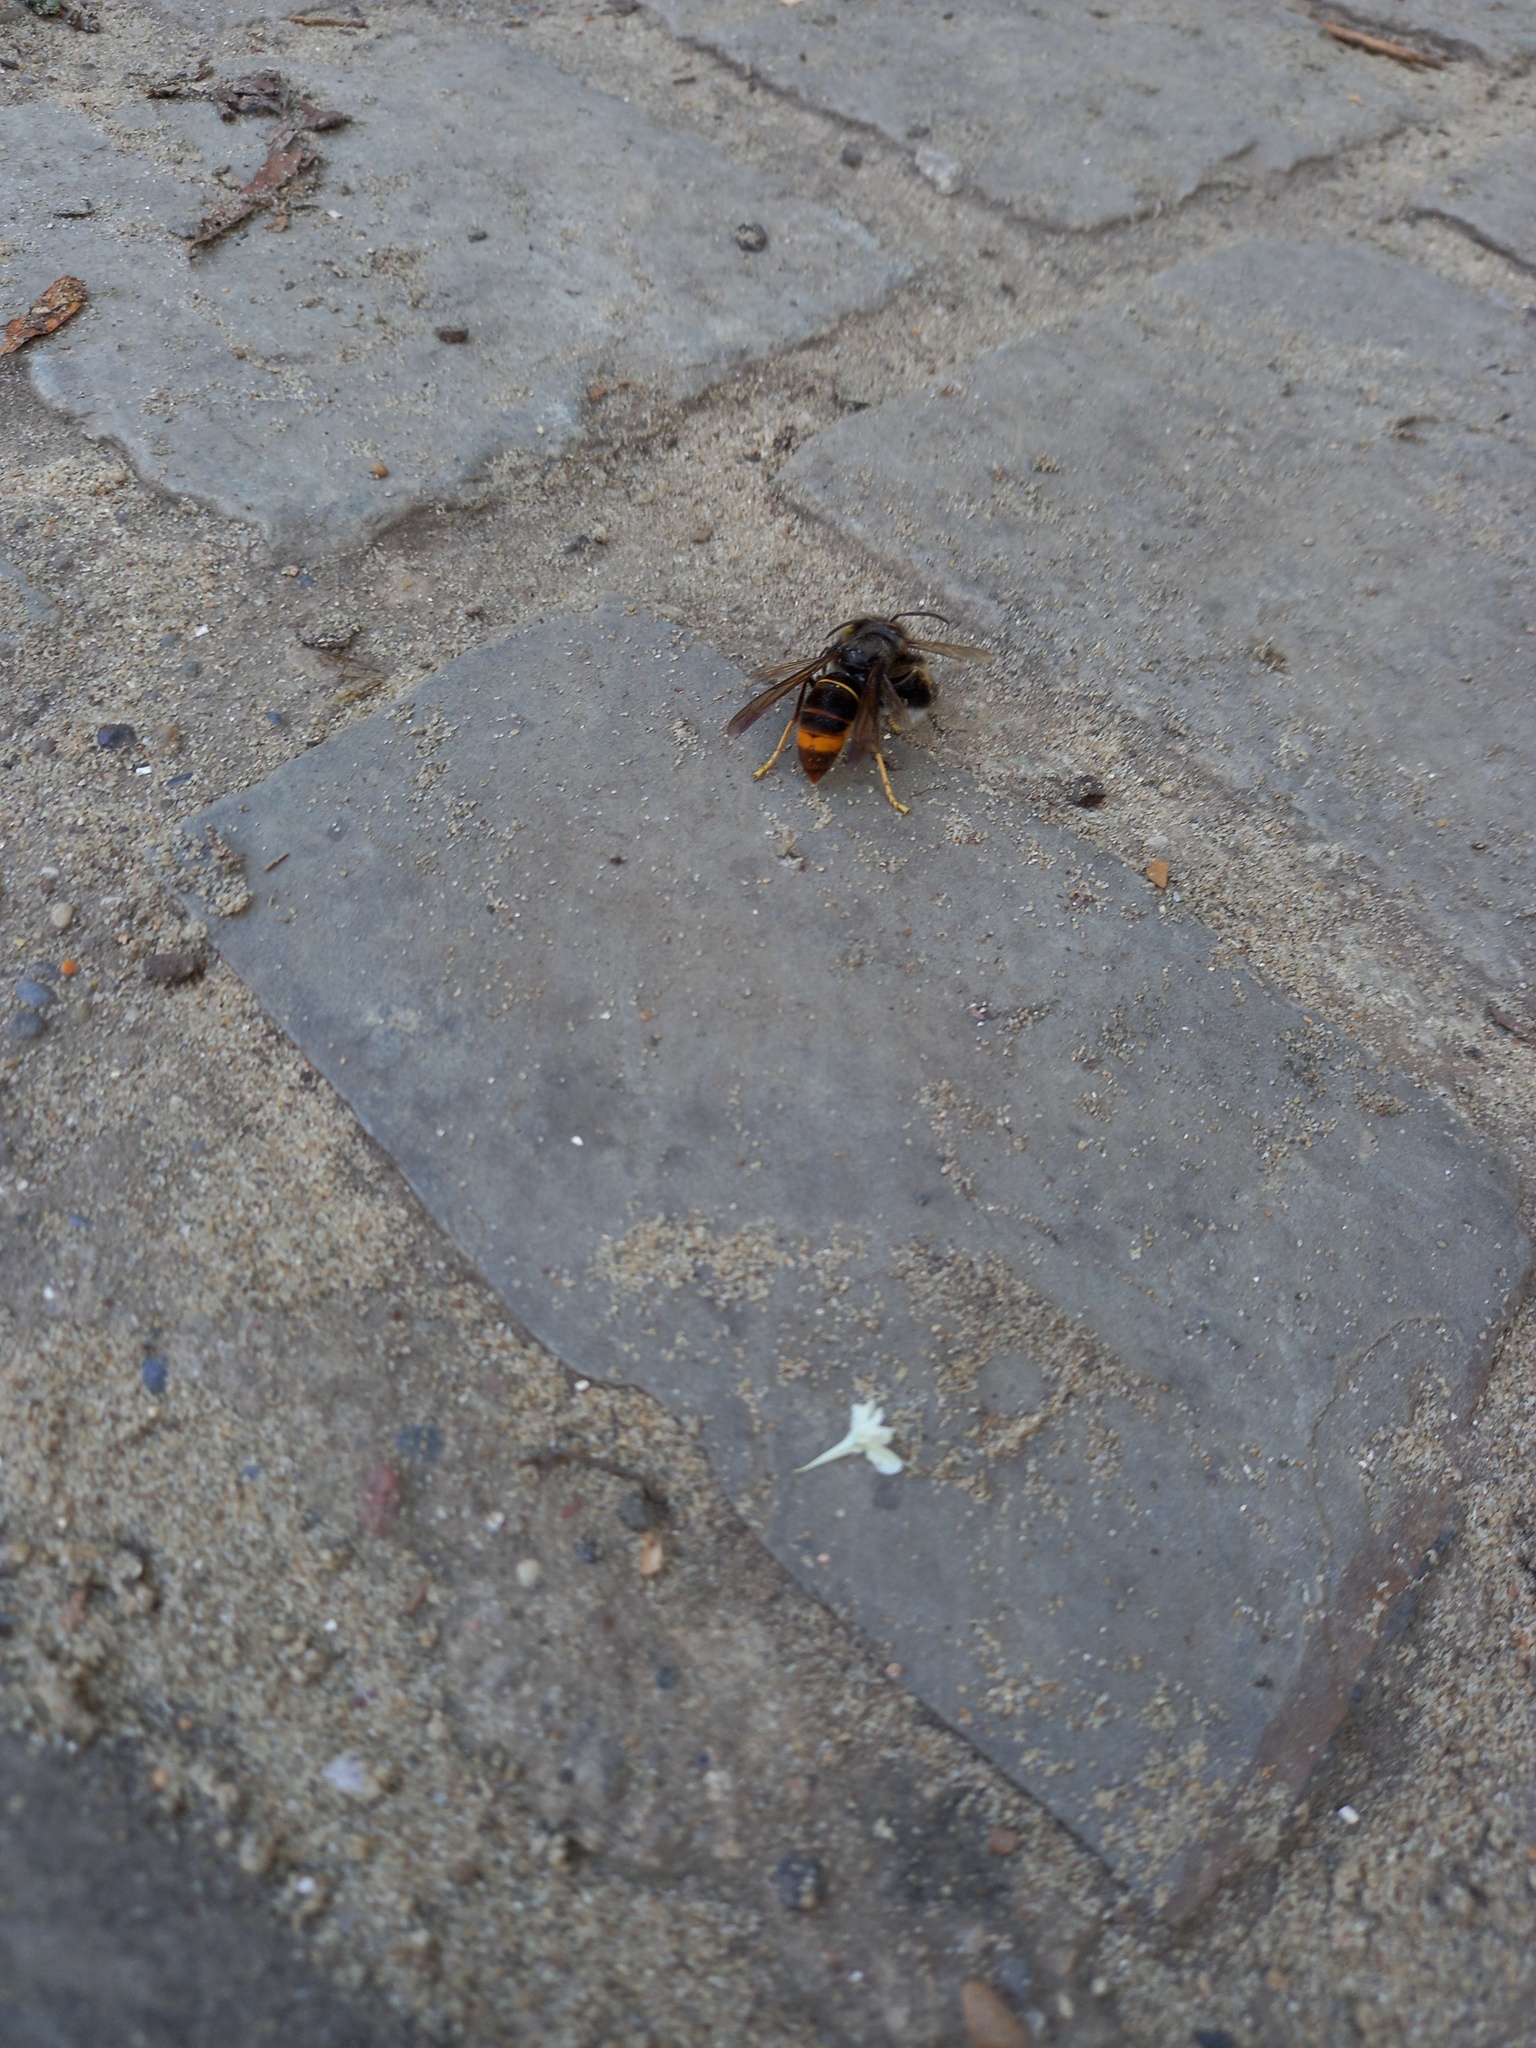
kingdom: Animalia
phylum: Arthropoda
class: Insecta
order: Hymenoptera
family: Vespidae
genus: Vespa
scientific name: Vespa velutina
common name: Asian hornet
